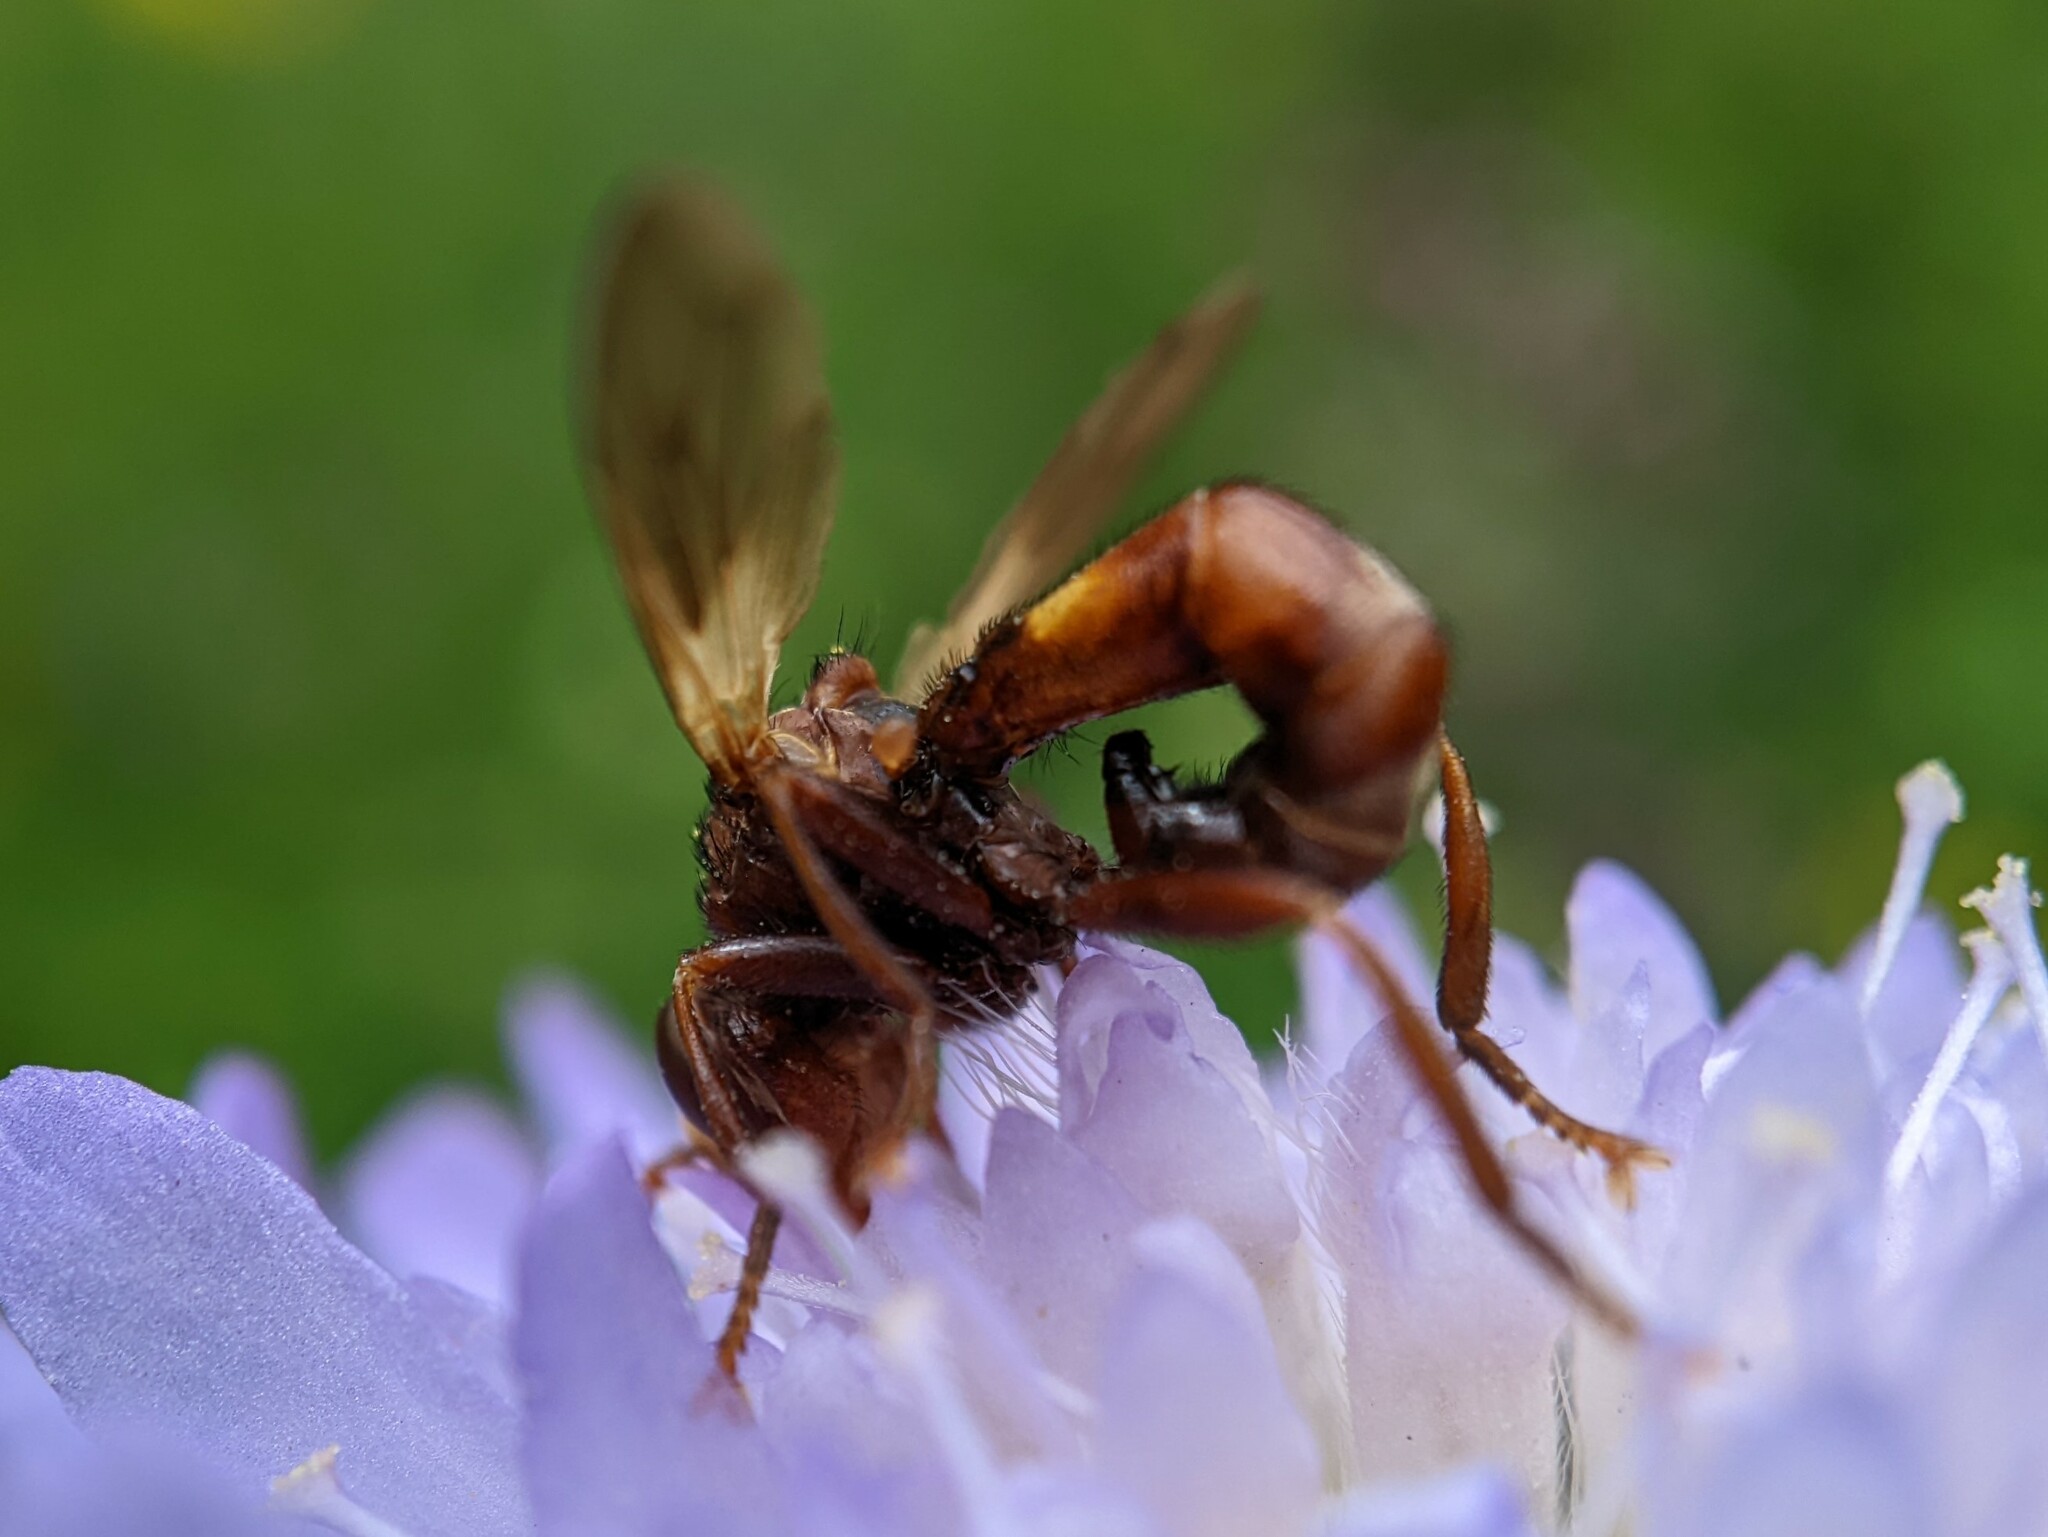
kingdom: Animalia
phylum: Arthropoda
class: Insecta
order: Diptera
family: Conopidae
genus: Sicus
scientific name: Sicus ferrugineus
